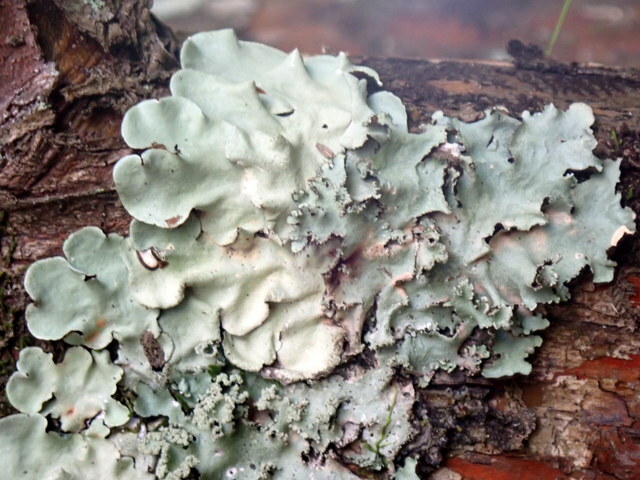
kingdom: Fungi
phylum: Ascomycota
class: Lecanoromycetes
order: Lecanorales
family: Parmeliaceae
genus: Parmotrema
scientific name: Parmotrema tinctorum
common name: Old gray ruffles
